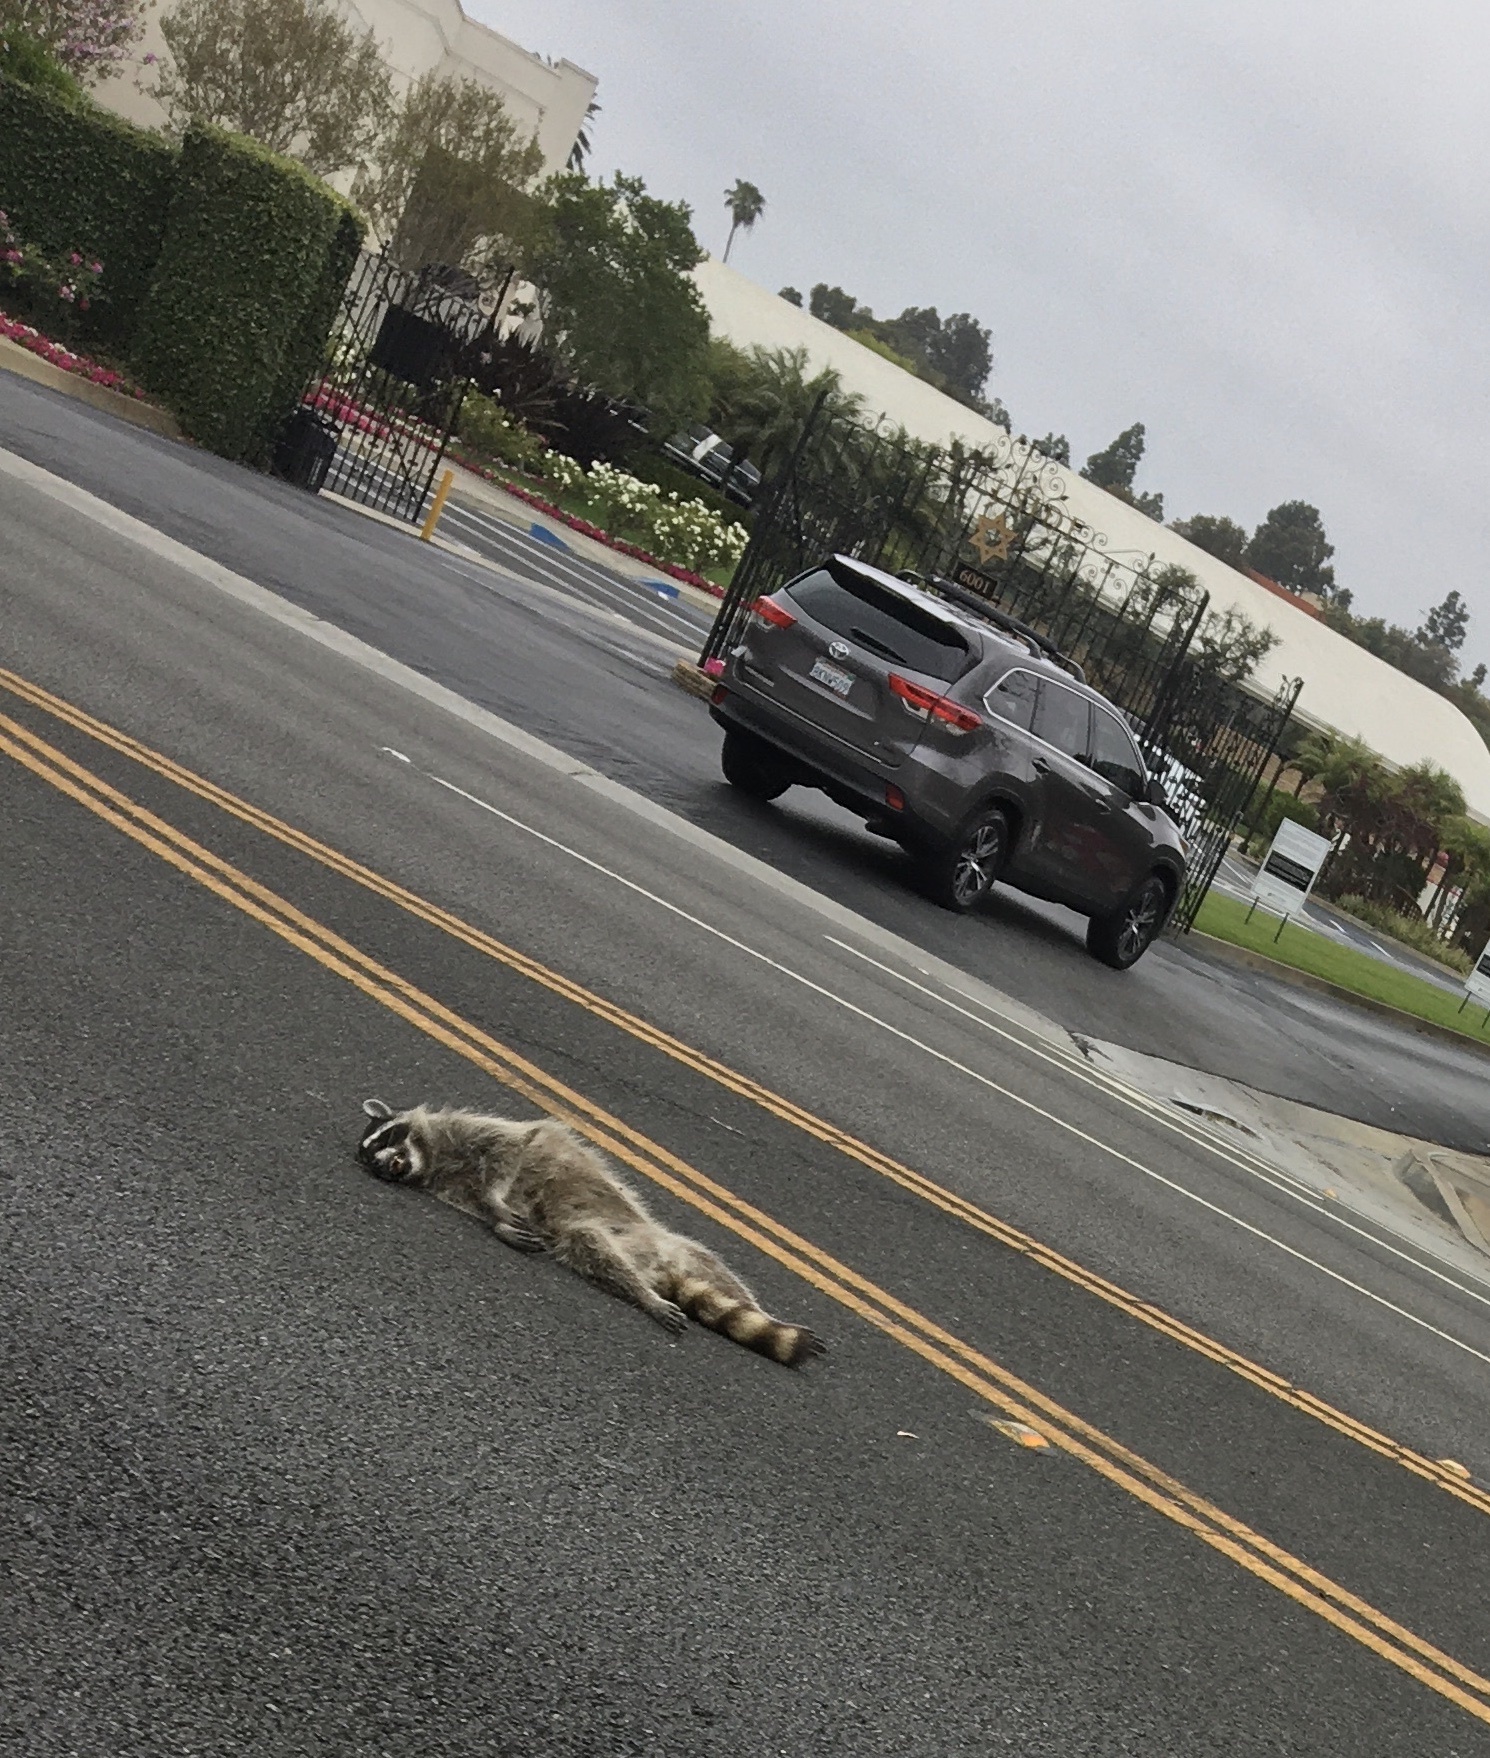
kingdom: Animalia
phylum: Chordata
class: Mammalia
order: Carnivora
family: Procyonidae
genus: Procyon
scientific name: Procyon lotor
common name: Raccoon
